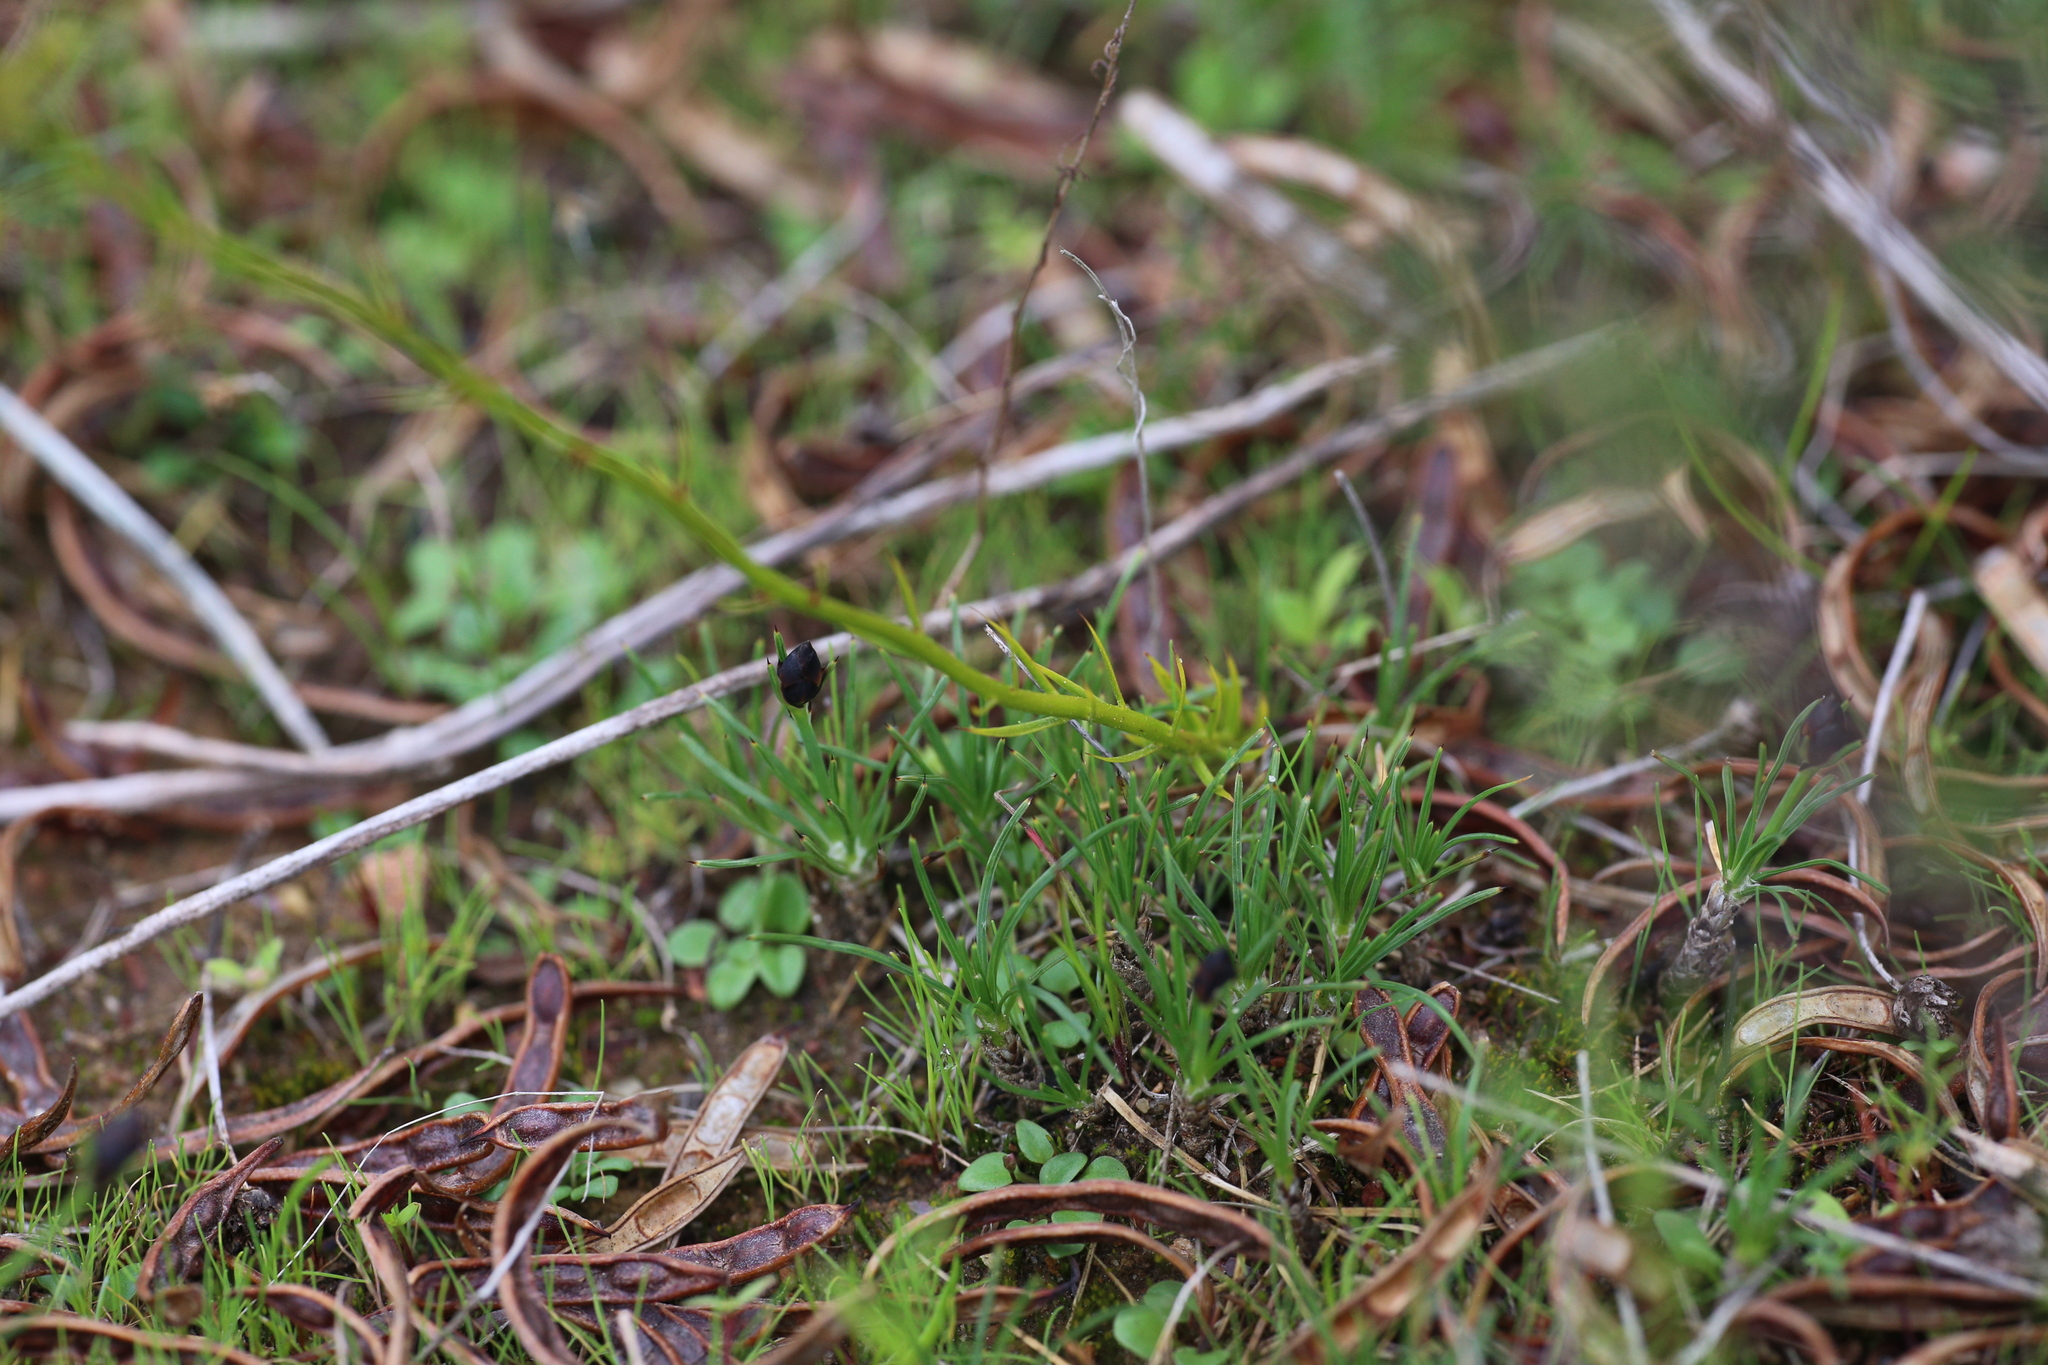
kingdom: Plantae
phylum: Tracheophyta
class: Magnoliopsida
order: Caryophyllales
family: Droseraceae
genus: Drosera
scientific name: Drosera heterophylla
